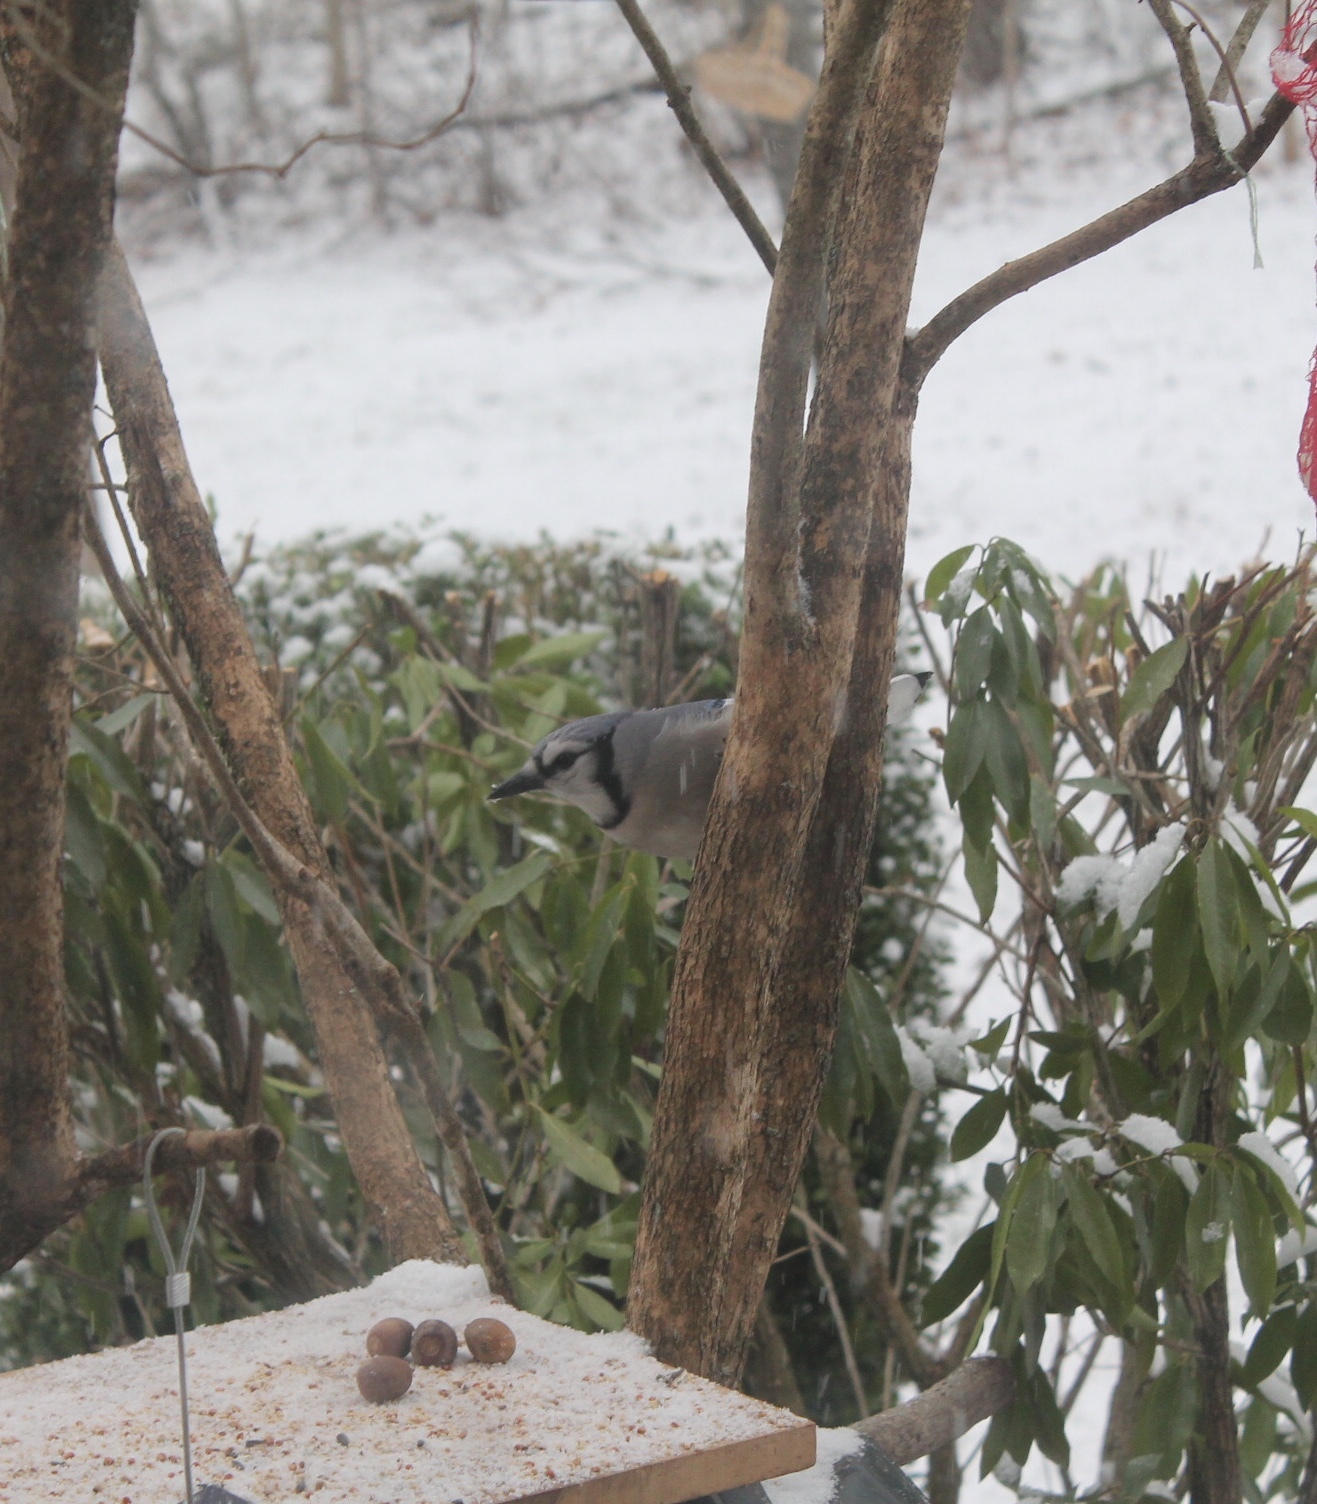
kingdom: Animalia
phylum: Chordata
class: Aves
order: Passeriformes
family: Corvidae
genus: Cyanocitta
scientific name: Cyanocitta cristata
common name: Blue jay
